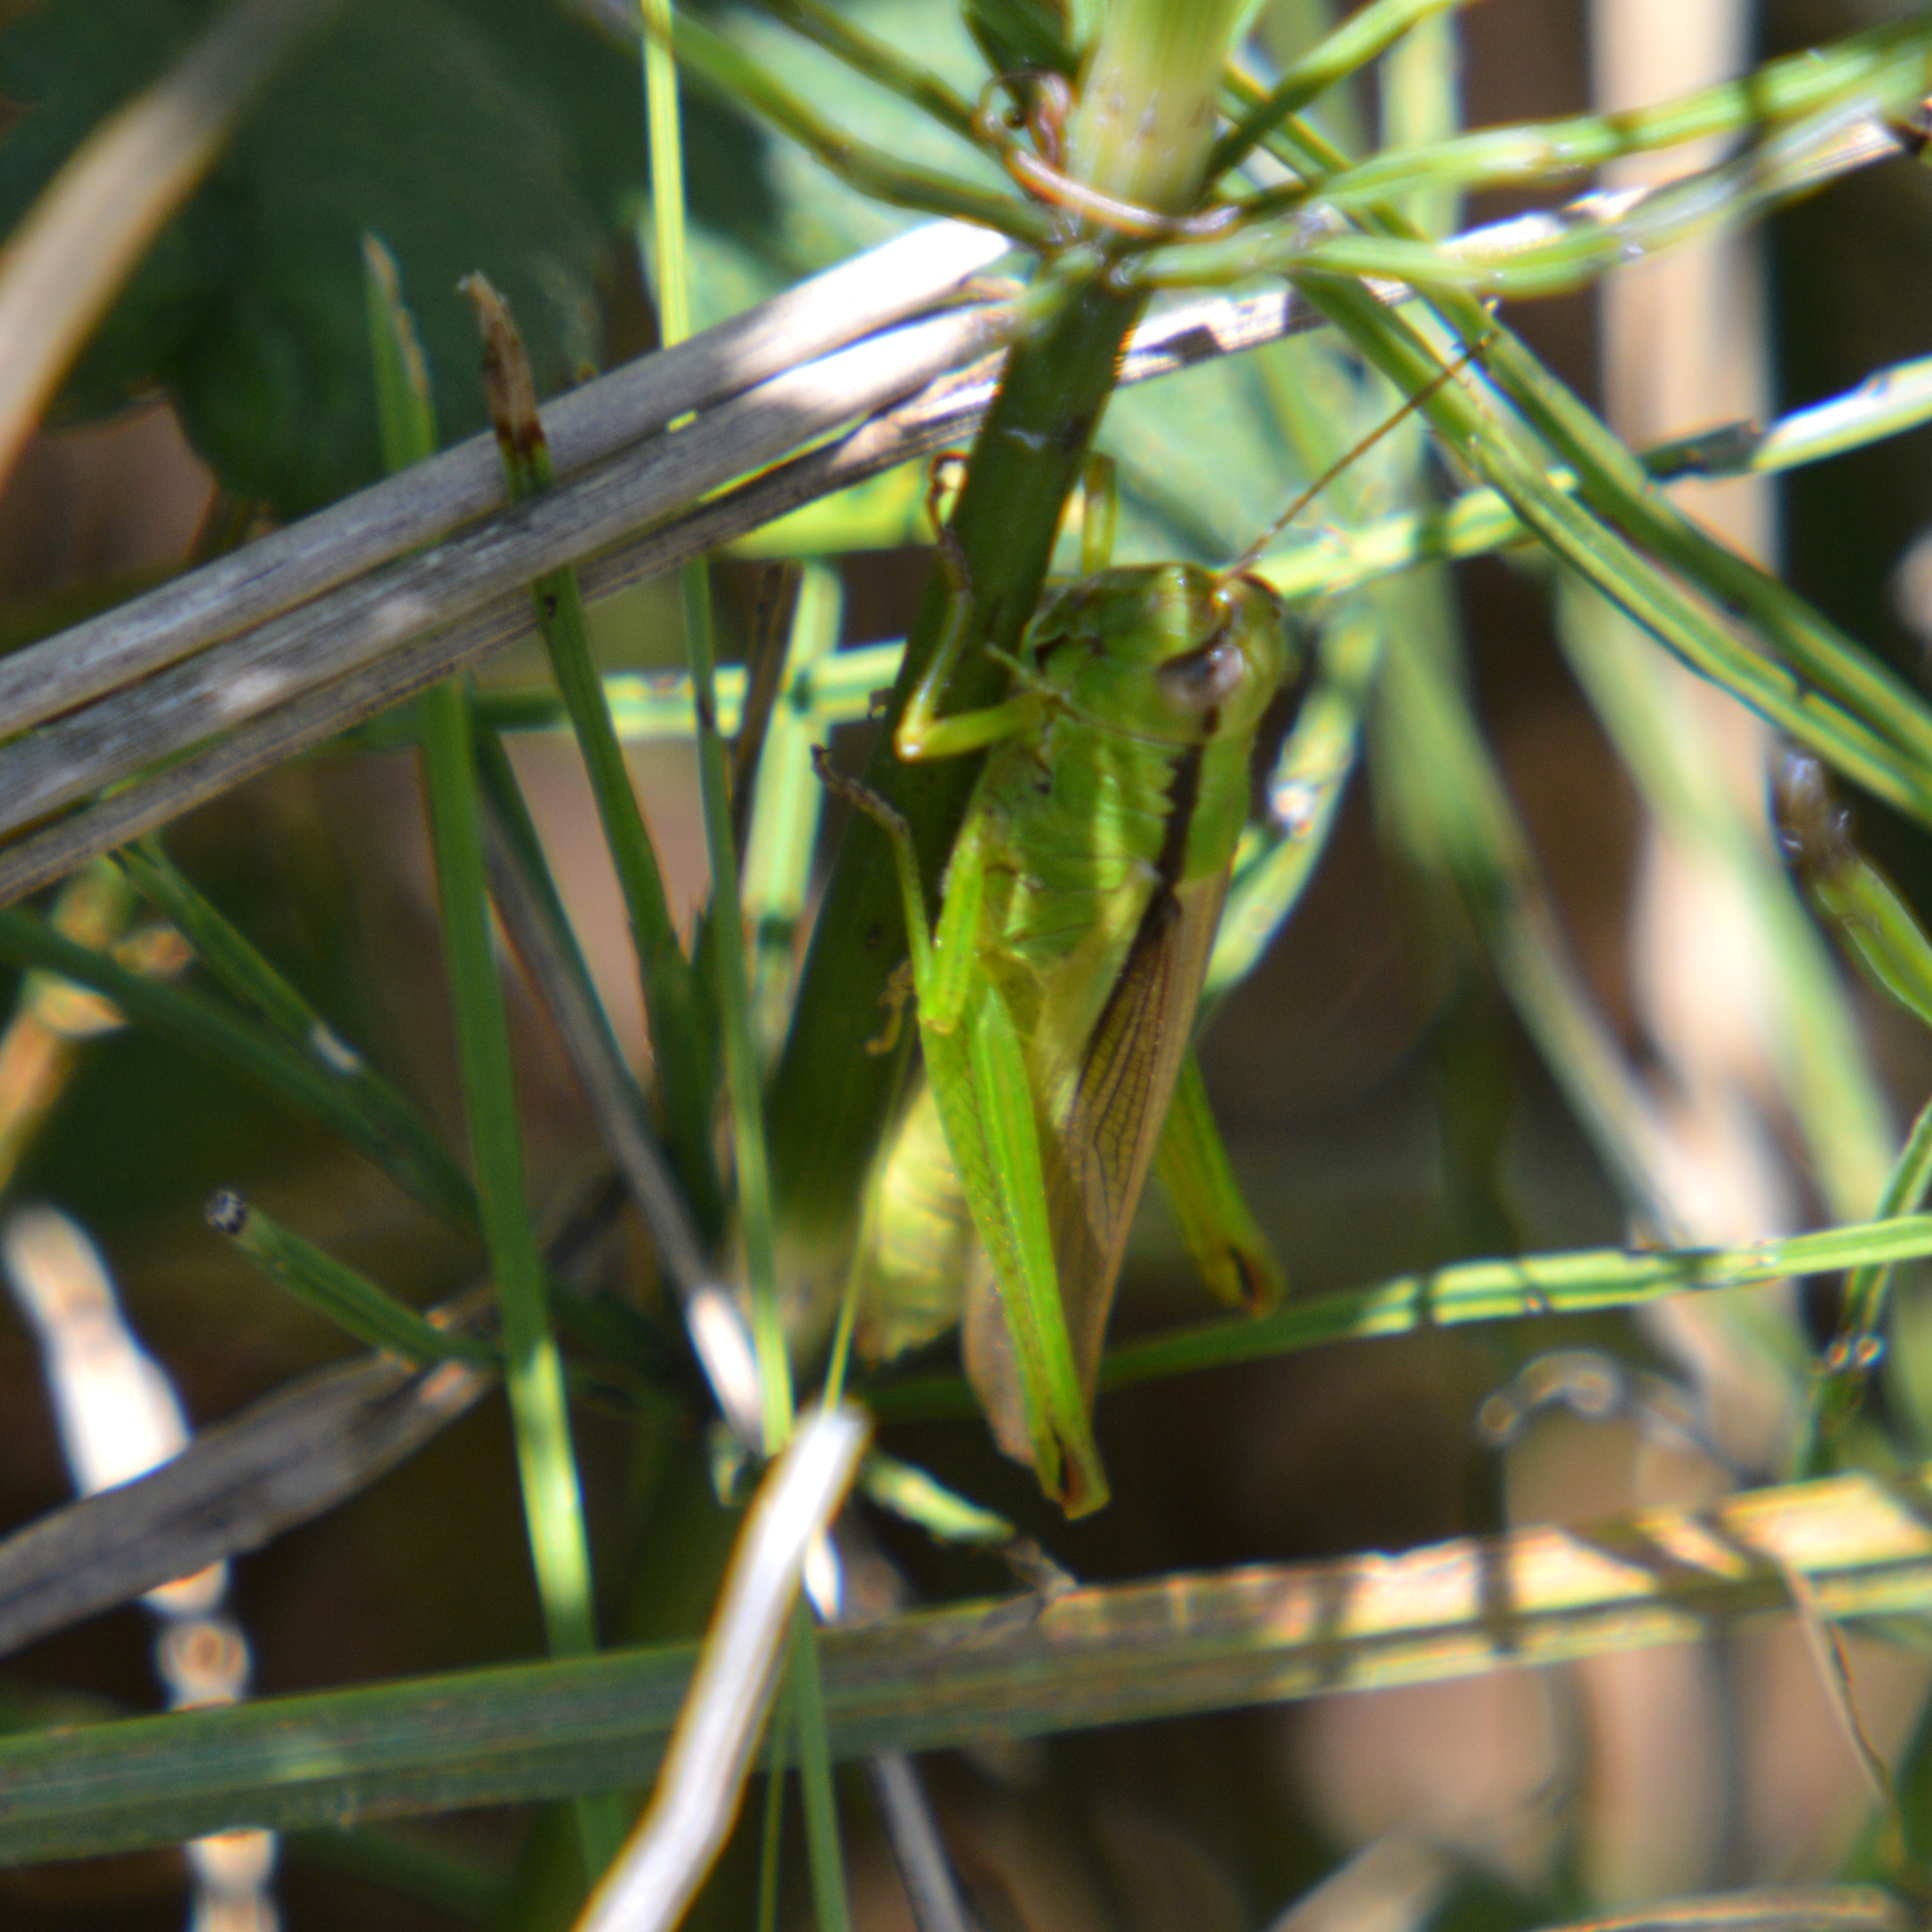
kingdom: Animalia
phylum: Arthropoda
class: Insecta
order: Orthoptera
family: Acrididae
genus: Mecostethus
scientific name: Mecostethus parapleurus
